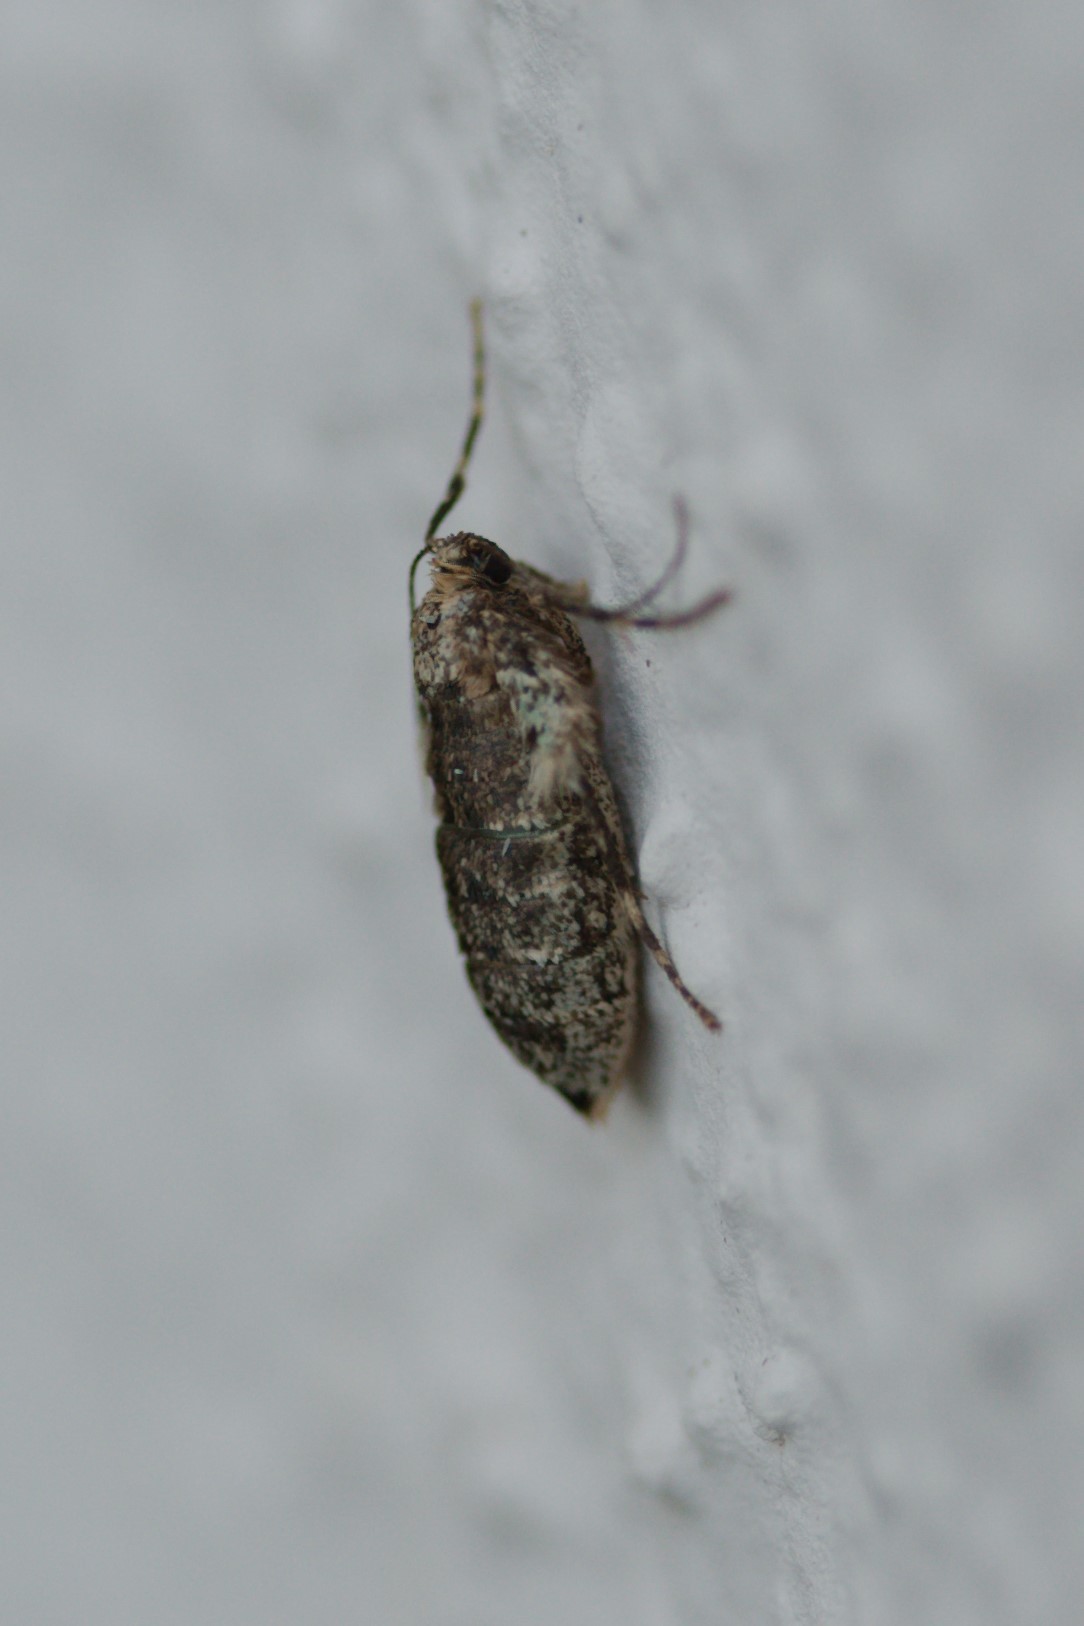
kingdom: Animalia
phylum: Arthropoda
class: Insecta
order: Lepidoptera
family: Geometridae
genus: Operophtera
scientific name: Operophtera brumata
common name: Winter moth
